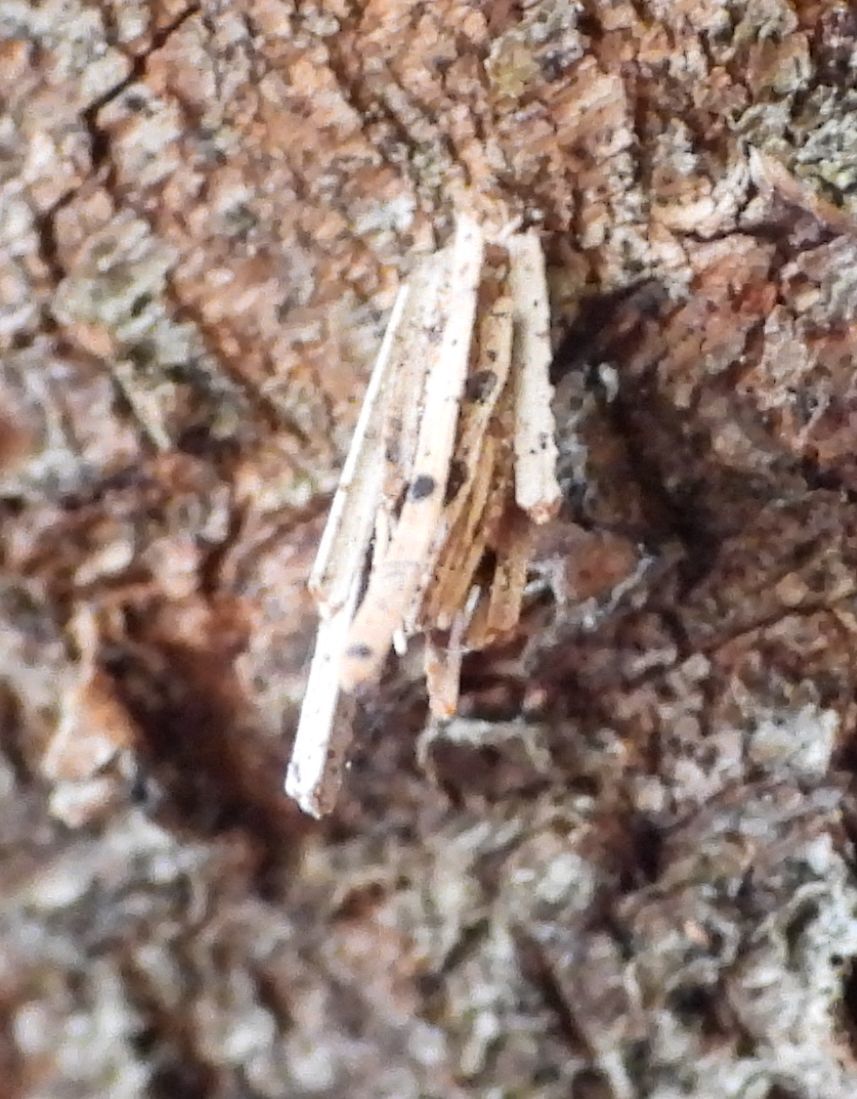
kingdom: Animalia
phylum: Arthropoda
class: Insecta
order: Lepidoptera
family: Psychidae
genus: Psyche
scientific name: Psyche casta
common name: Common sweep
